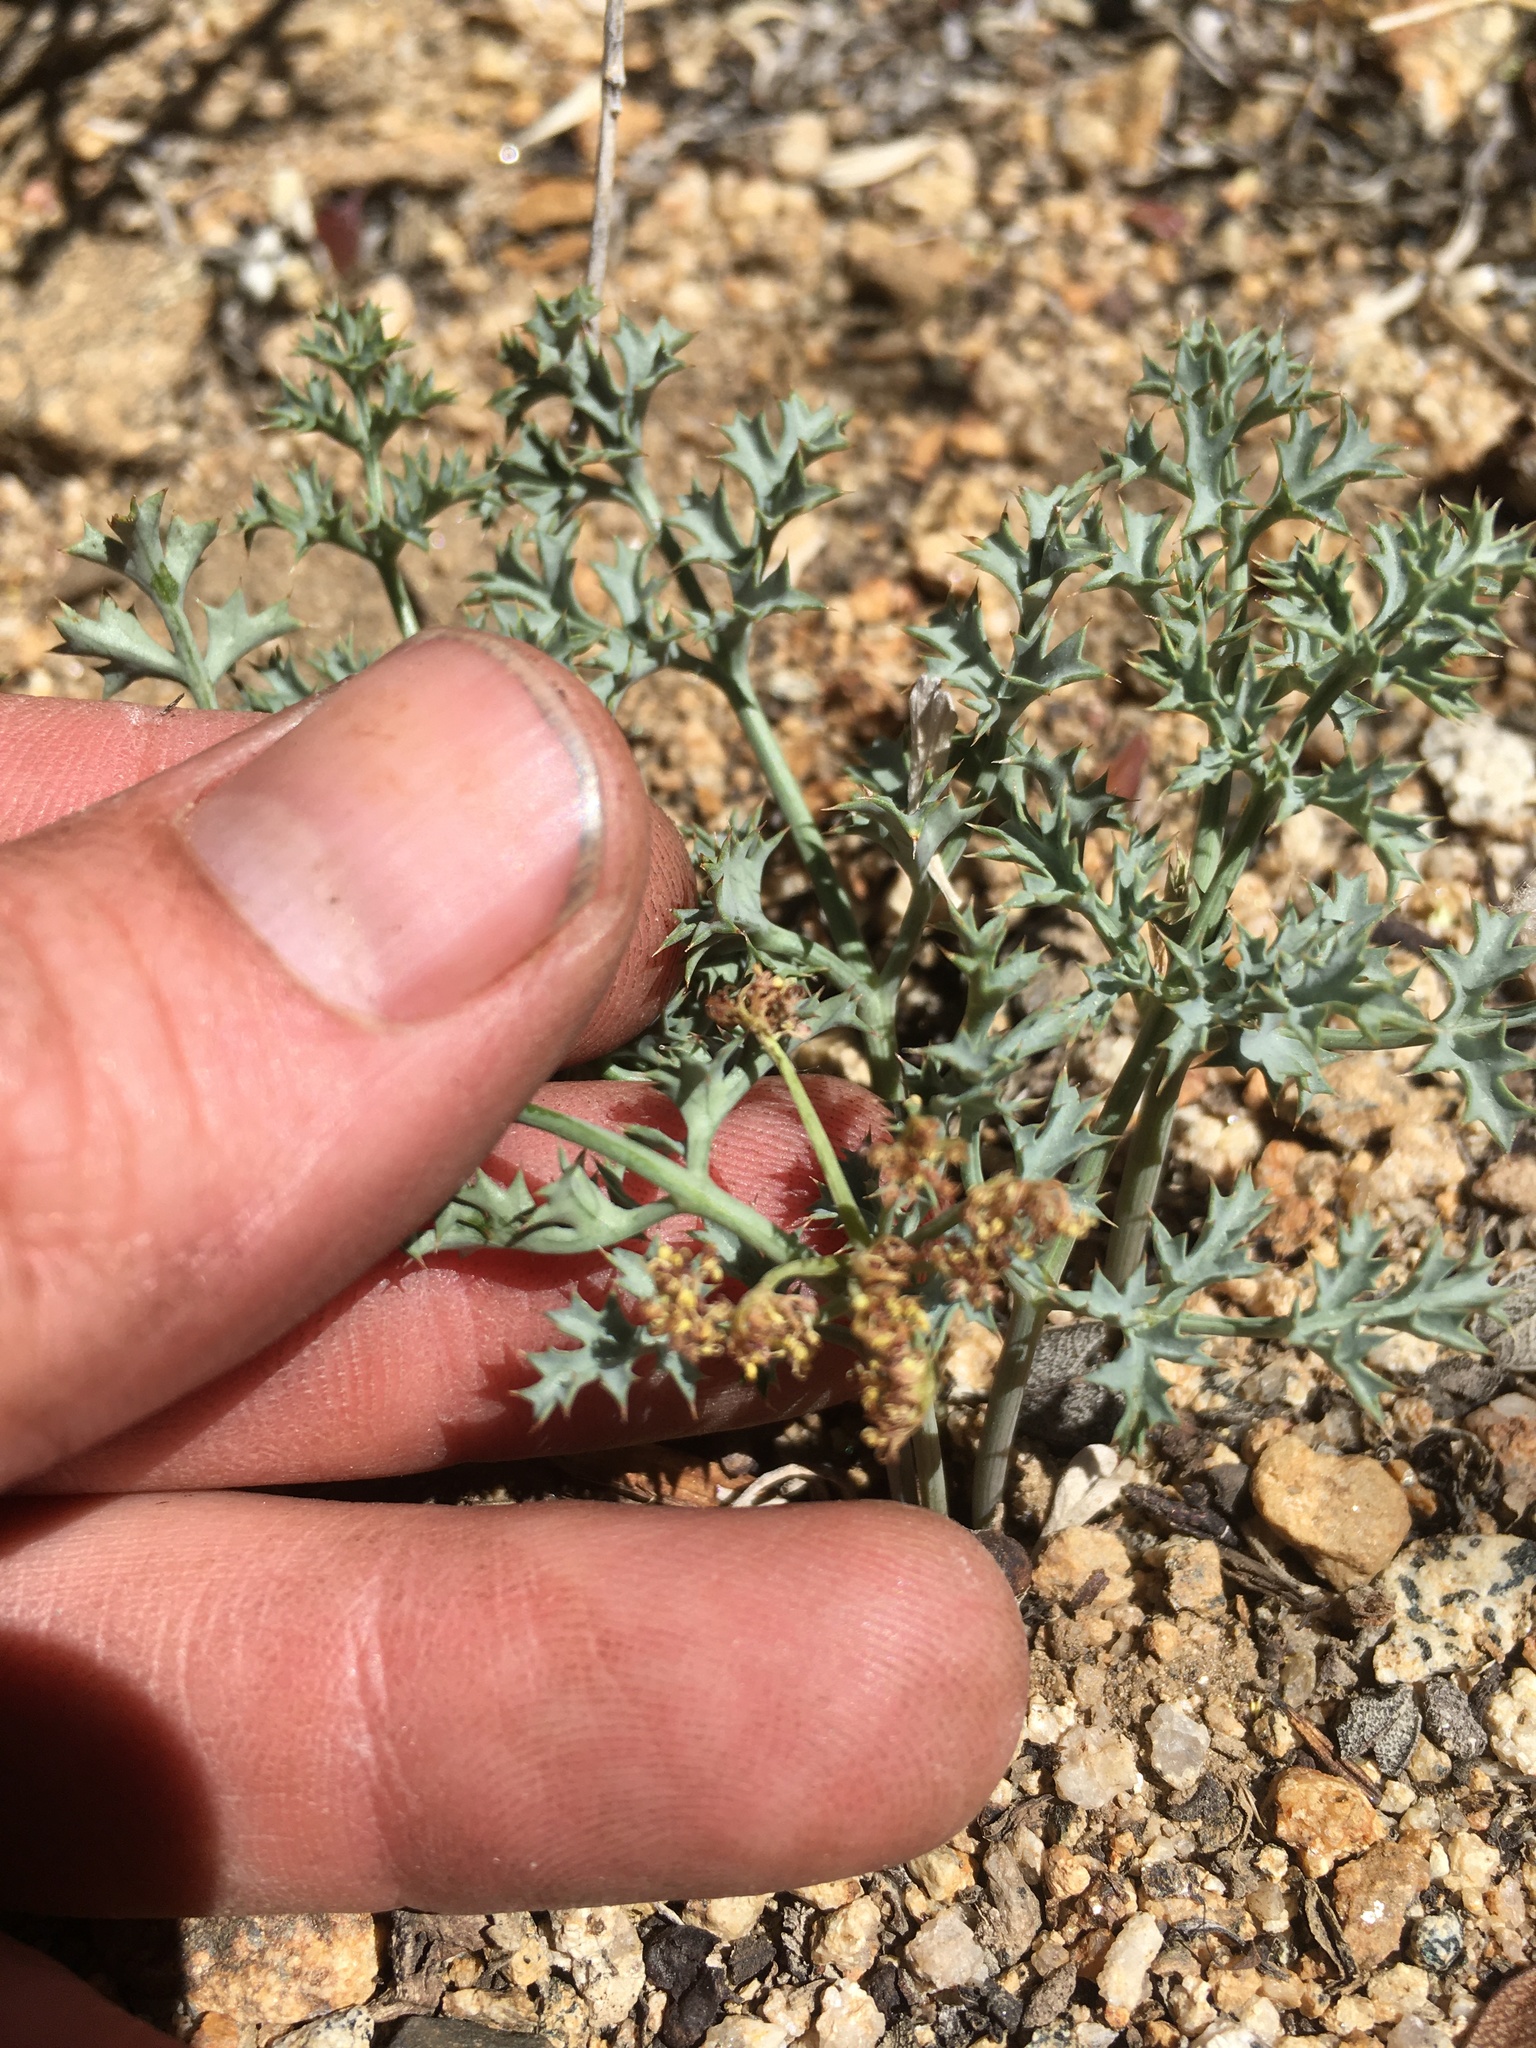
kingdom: Plantae
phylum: Tracheophyta
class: Magnoliopsida
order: Apiales
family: Apiaceae
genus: Lomatium
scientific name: Lomatium rigidum
